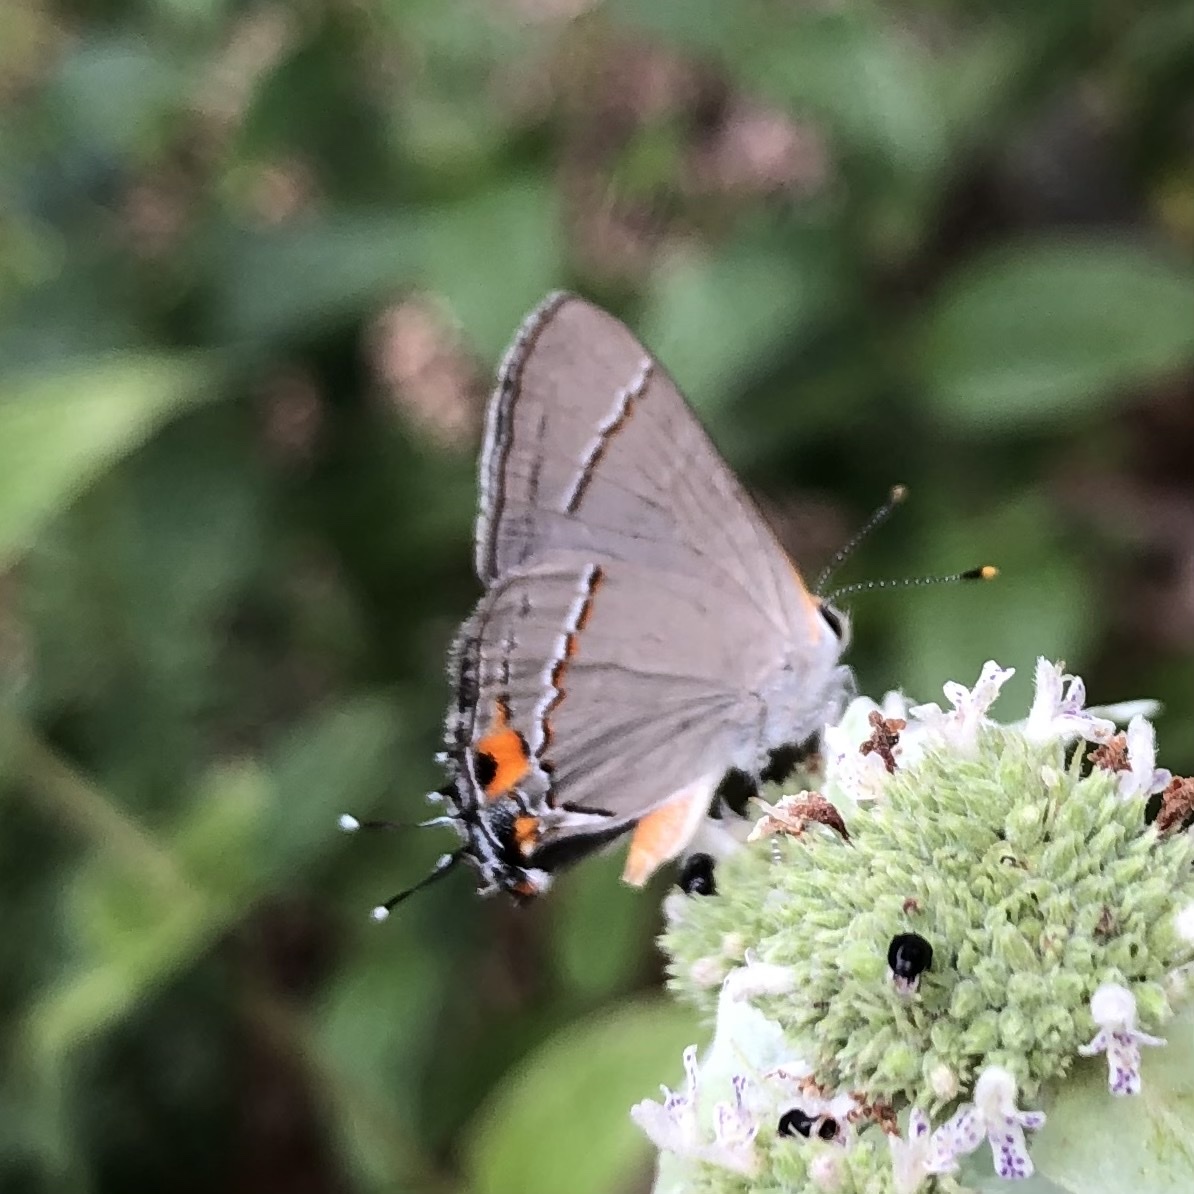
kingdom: Animalia
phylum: Arthropoda
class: Insecta
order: Lepidoptera
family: Lycaenidae
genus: Strymon
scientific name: Strymon melinus
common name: Gray hairstreak
